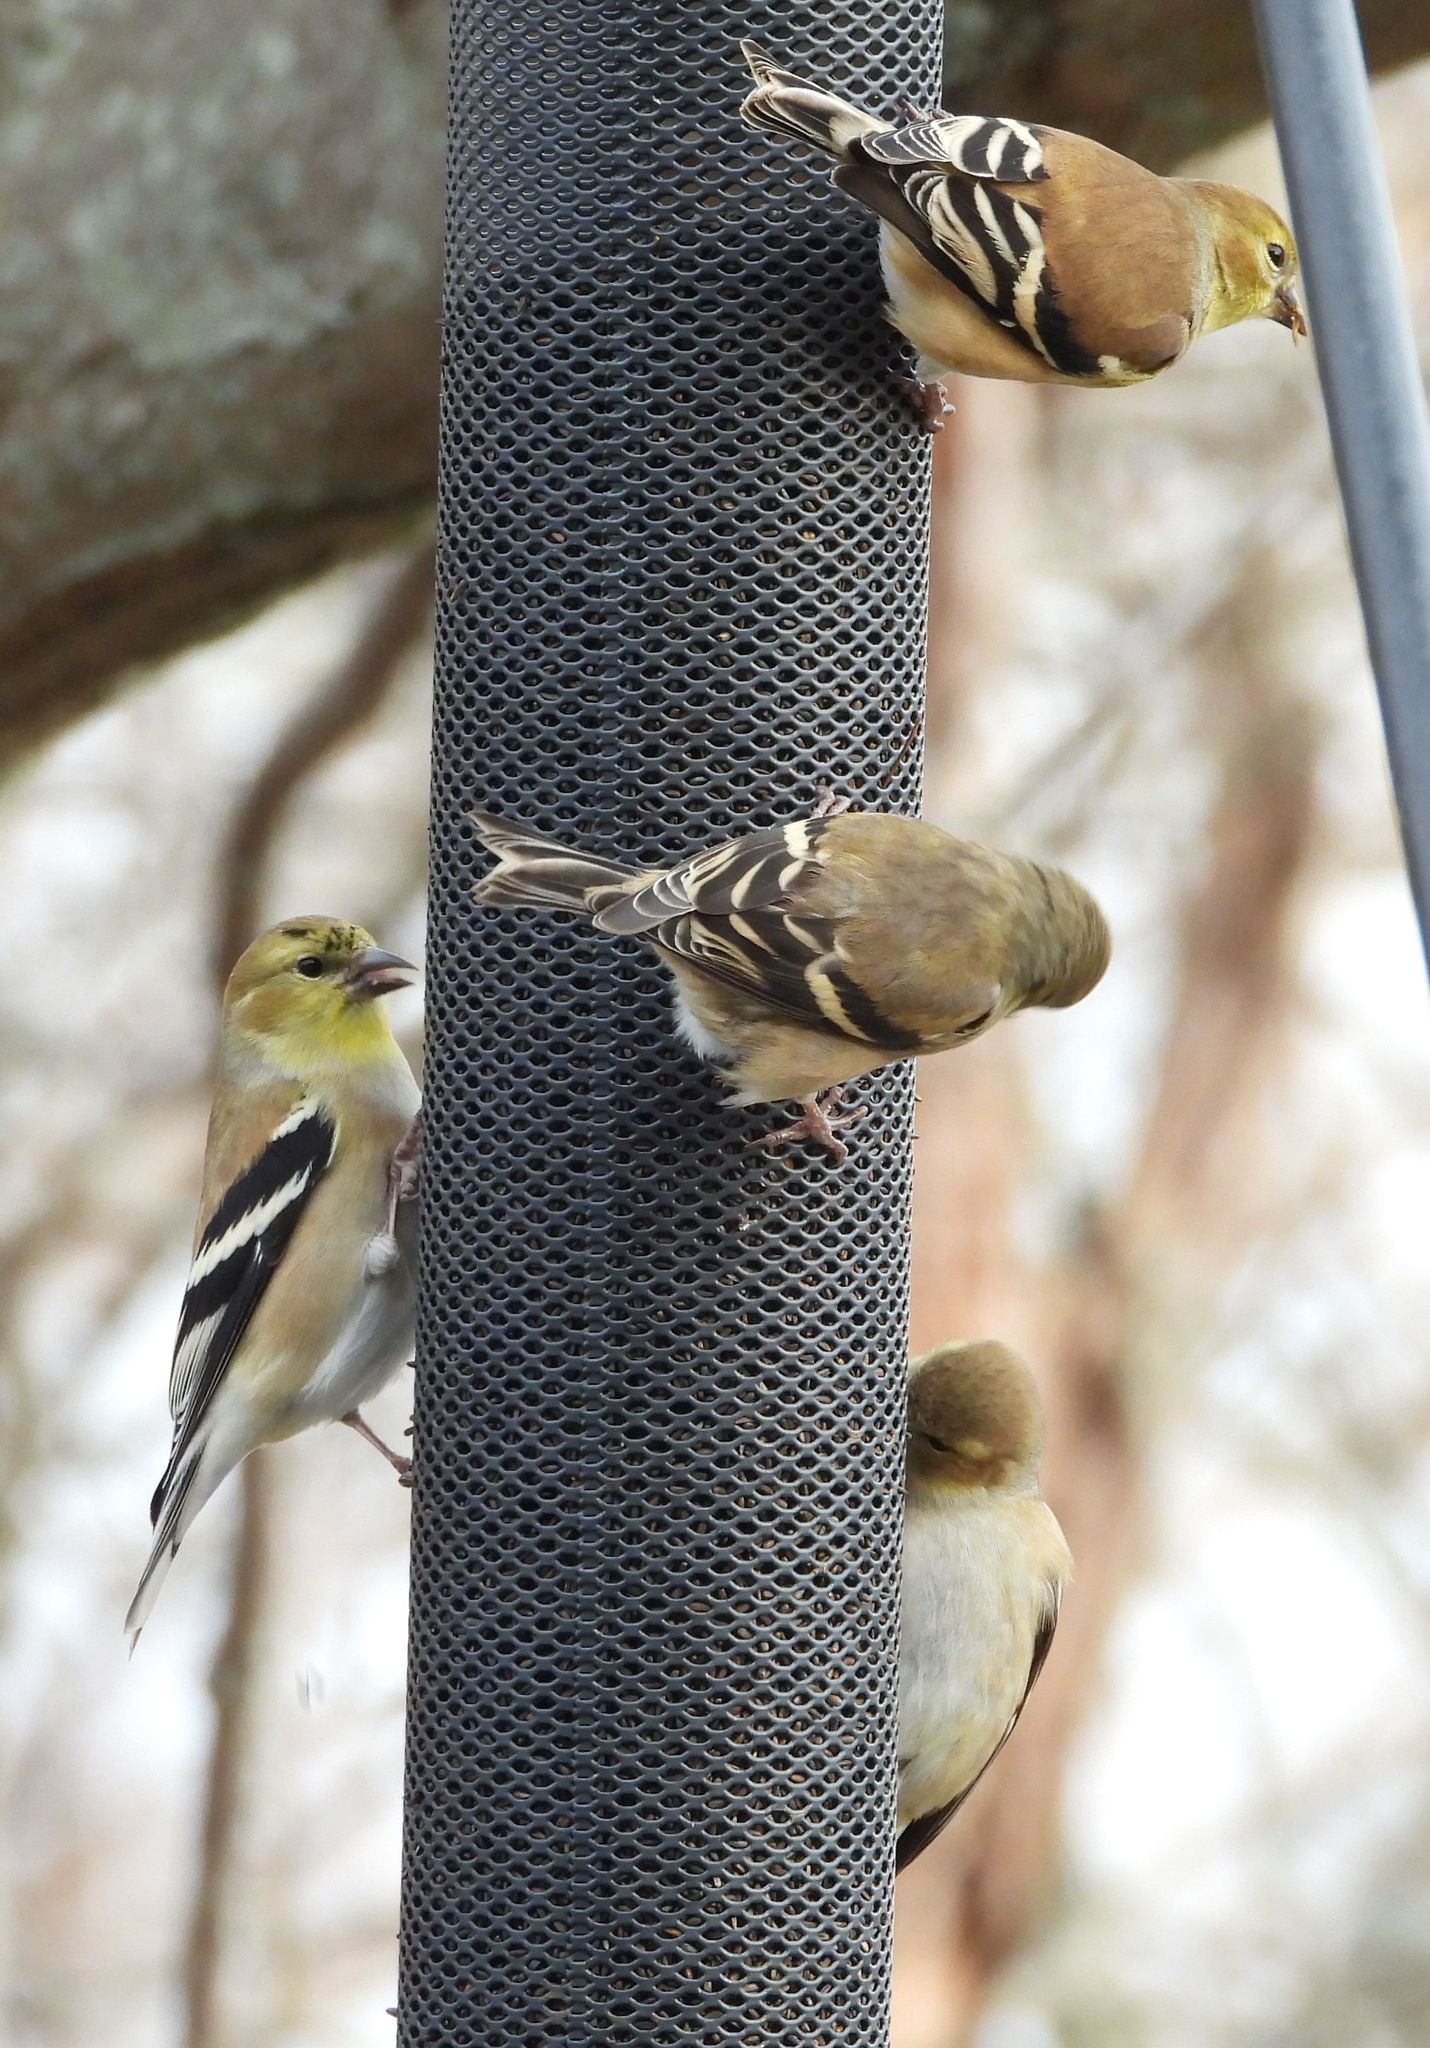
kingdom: Animalia
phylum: Chordata
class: Aves
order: Passeriformes
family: Fringillidae
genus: Spinus
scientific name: Spinus tristis
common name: American goldfinch
